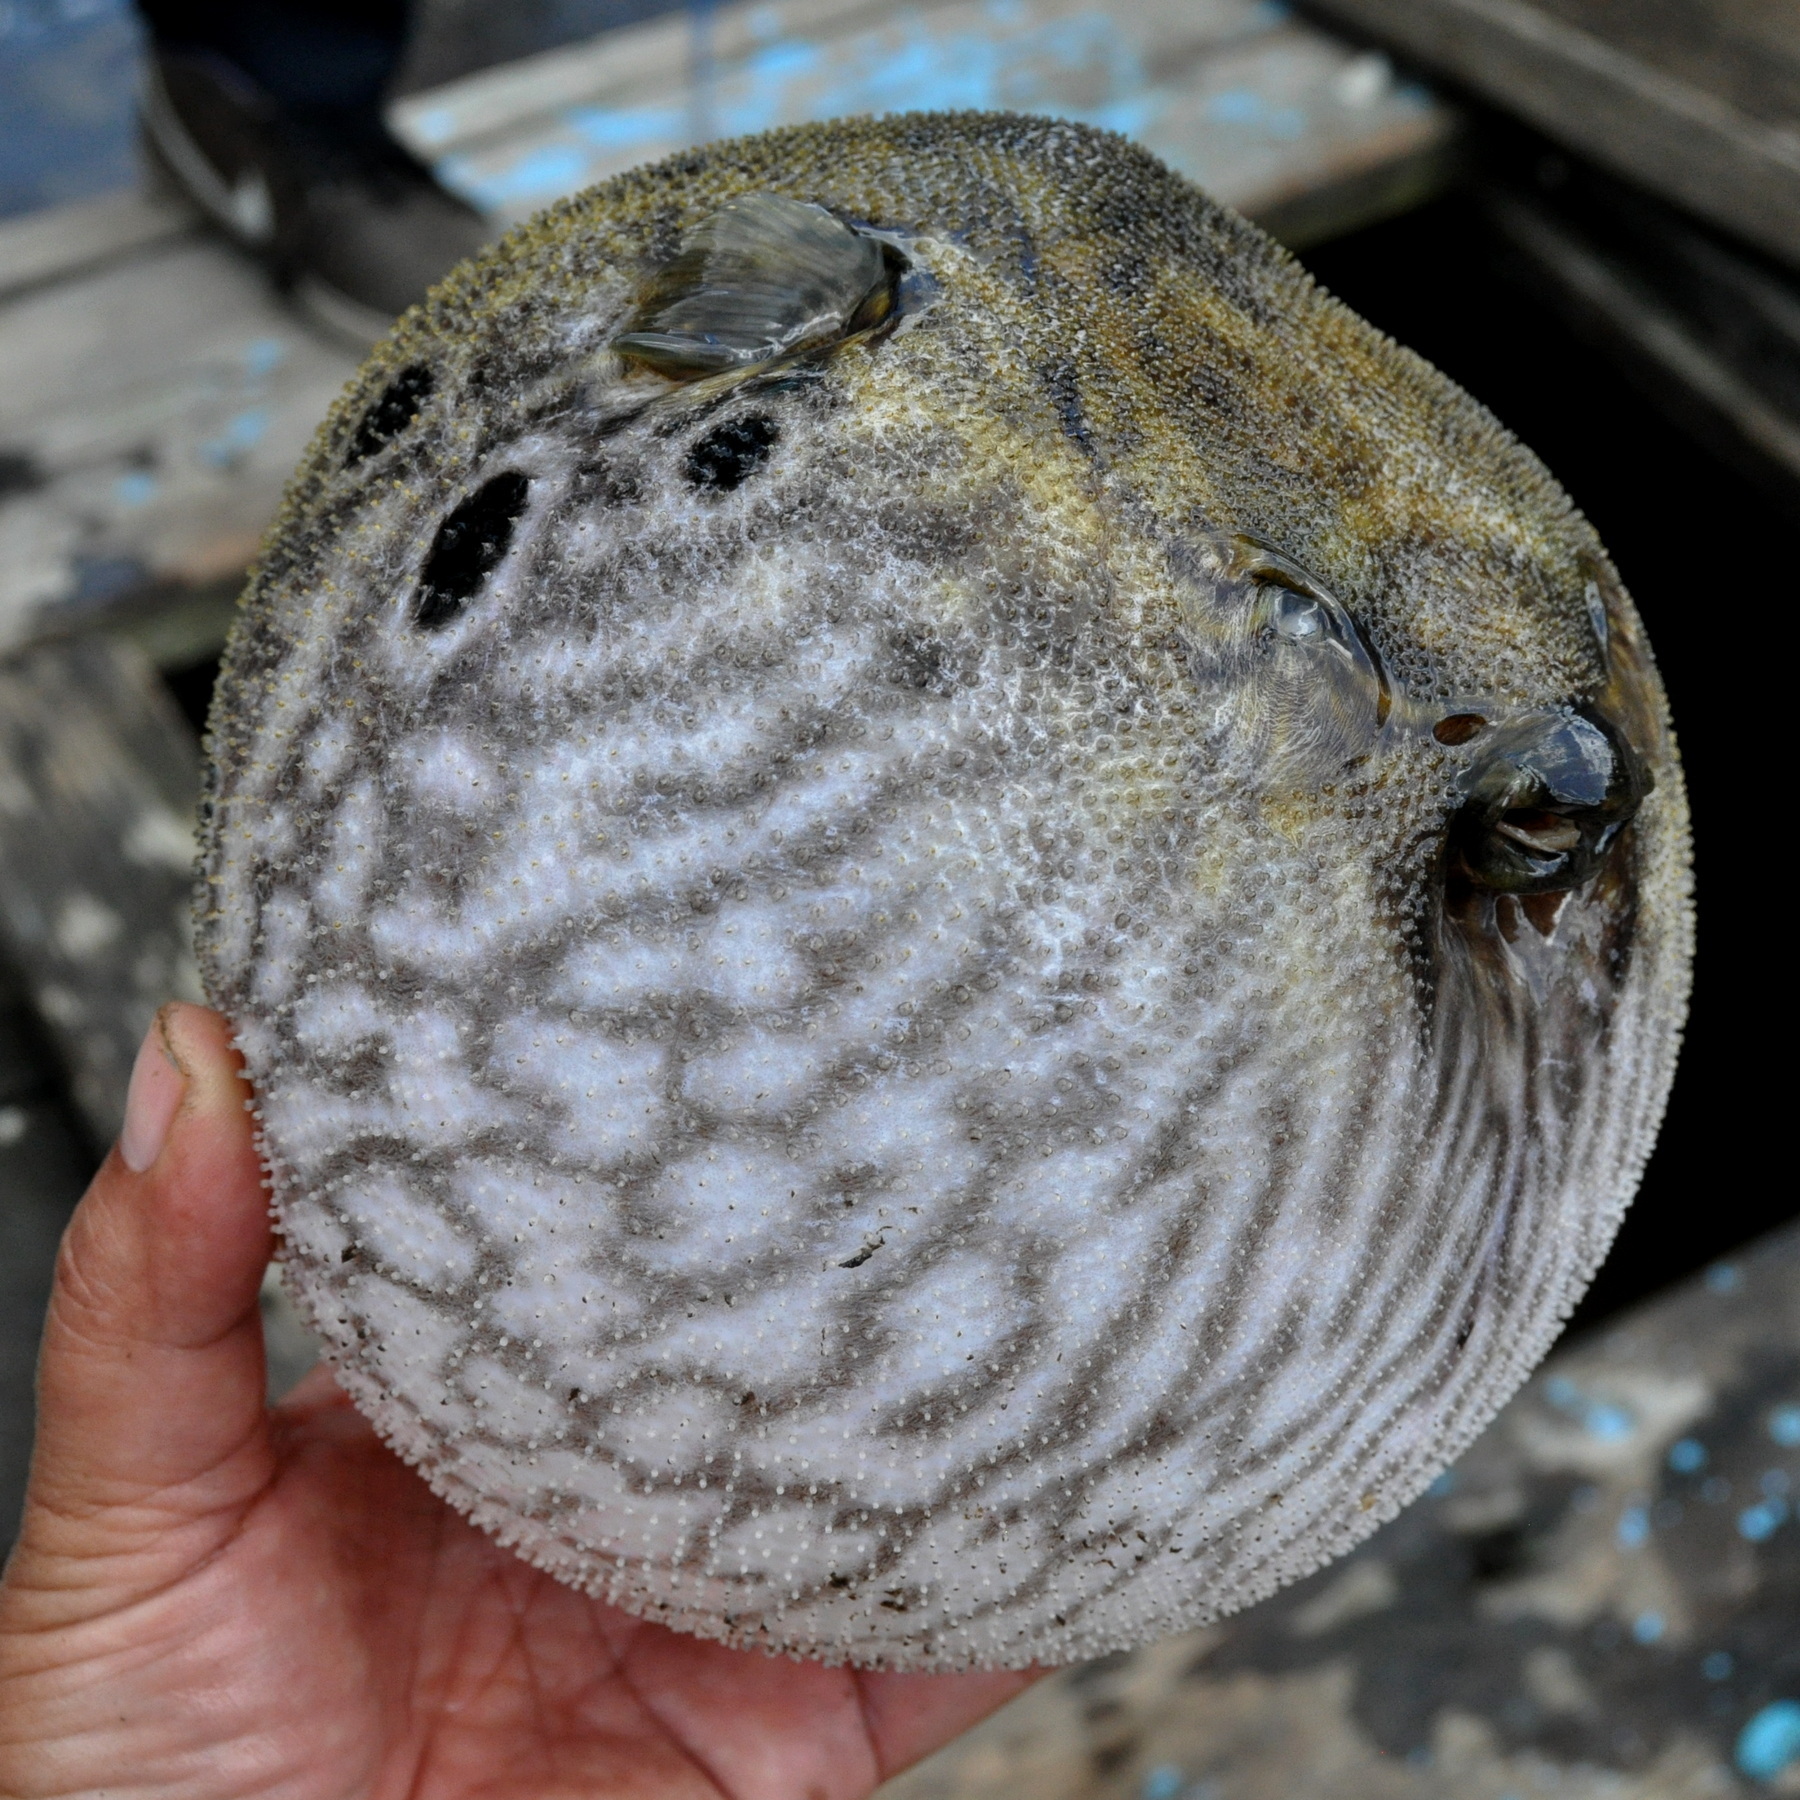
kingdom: Animalia
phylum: Chordata
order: Tetraodontiformes
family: Tetraodontidae
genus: Pao
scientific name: Pao palembangensis
